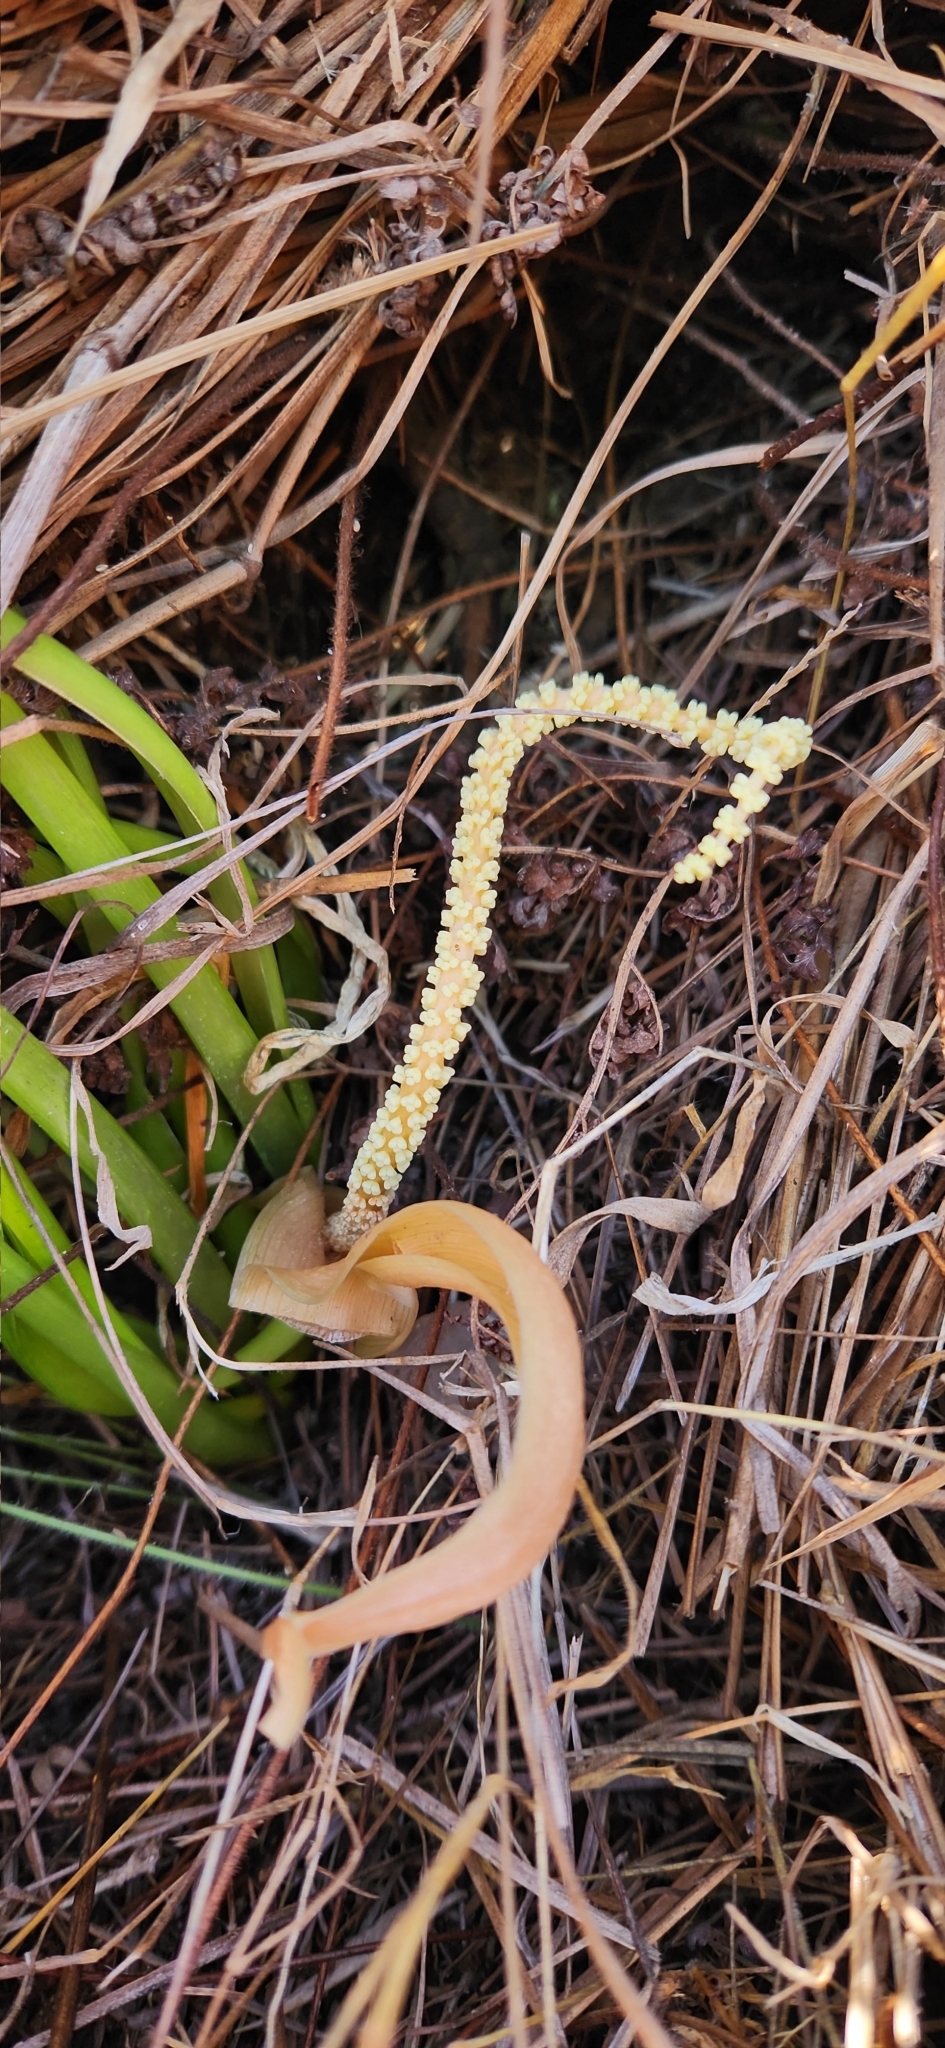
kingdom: Plantae
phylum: Tracheophyta
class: Liliopsida
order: Alismatales
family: Araceae
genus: Mangonia
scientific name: Mangonia uruguaya
